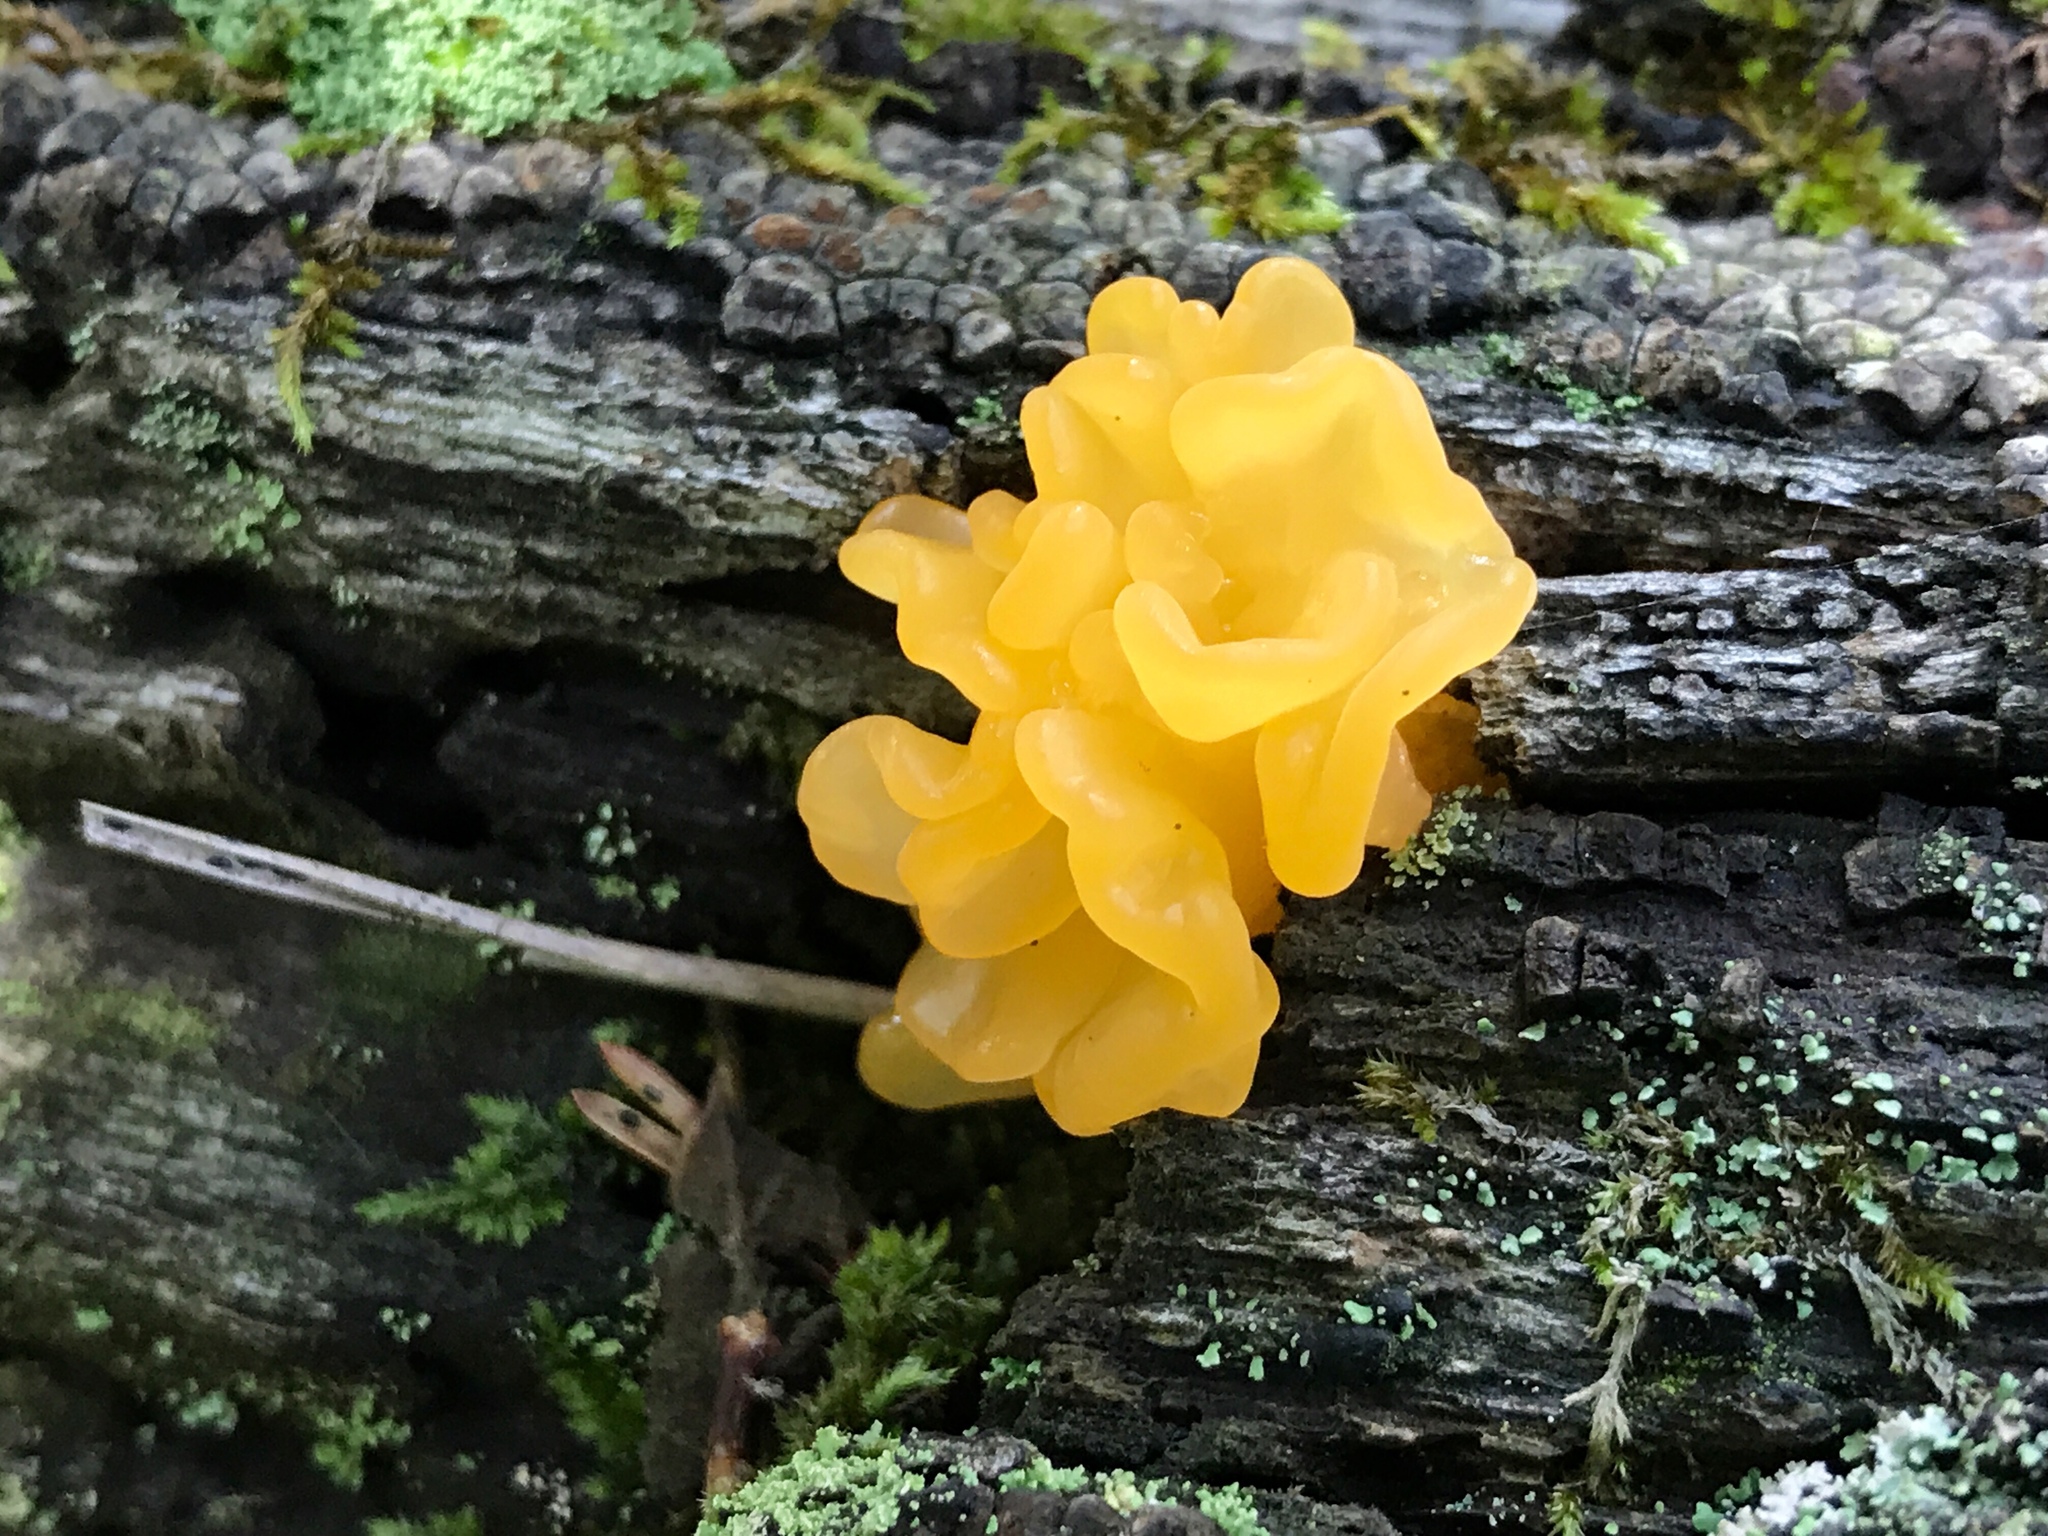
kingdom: Fungi
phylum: Basidiomycota
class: Dacrymycetes
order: Dacrymycetales
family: Dacrymycetaceae
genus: Dacrymyces
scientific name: Dacrymyces chrysospermus
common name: Orange jelly spot
